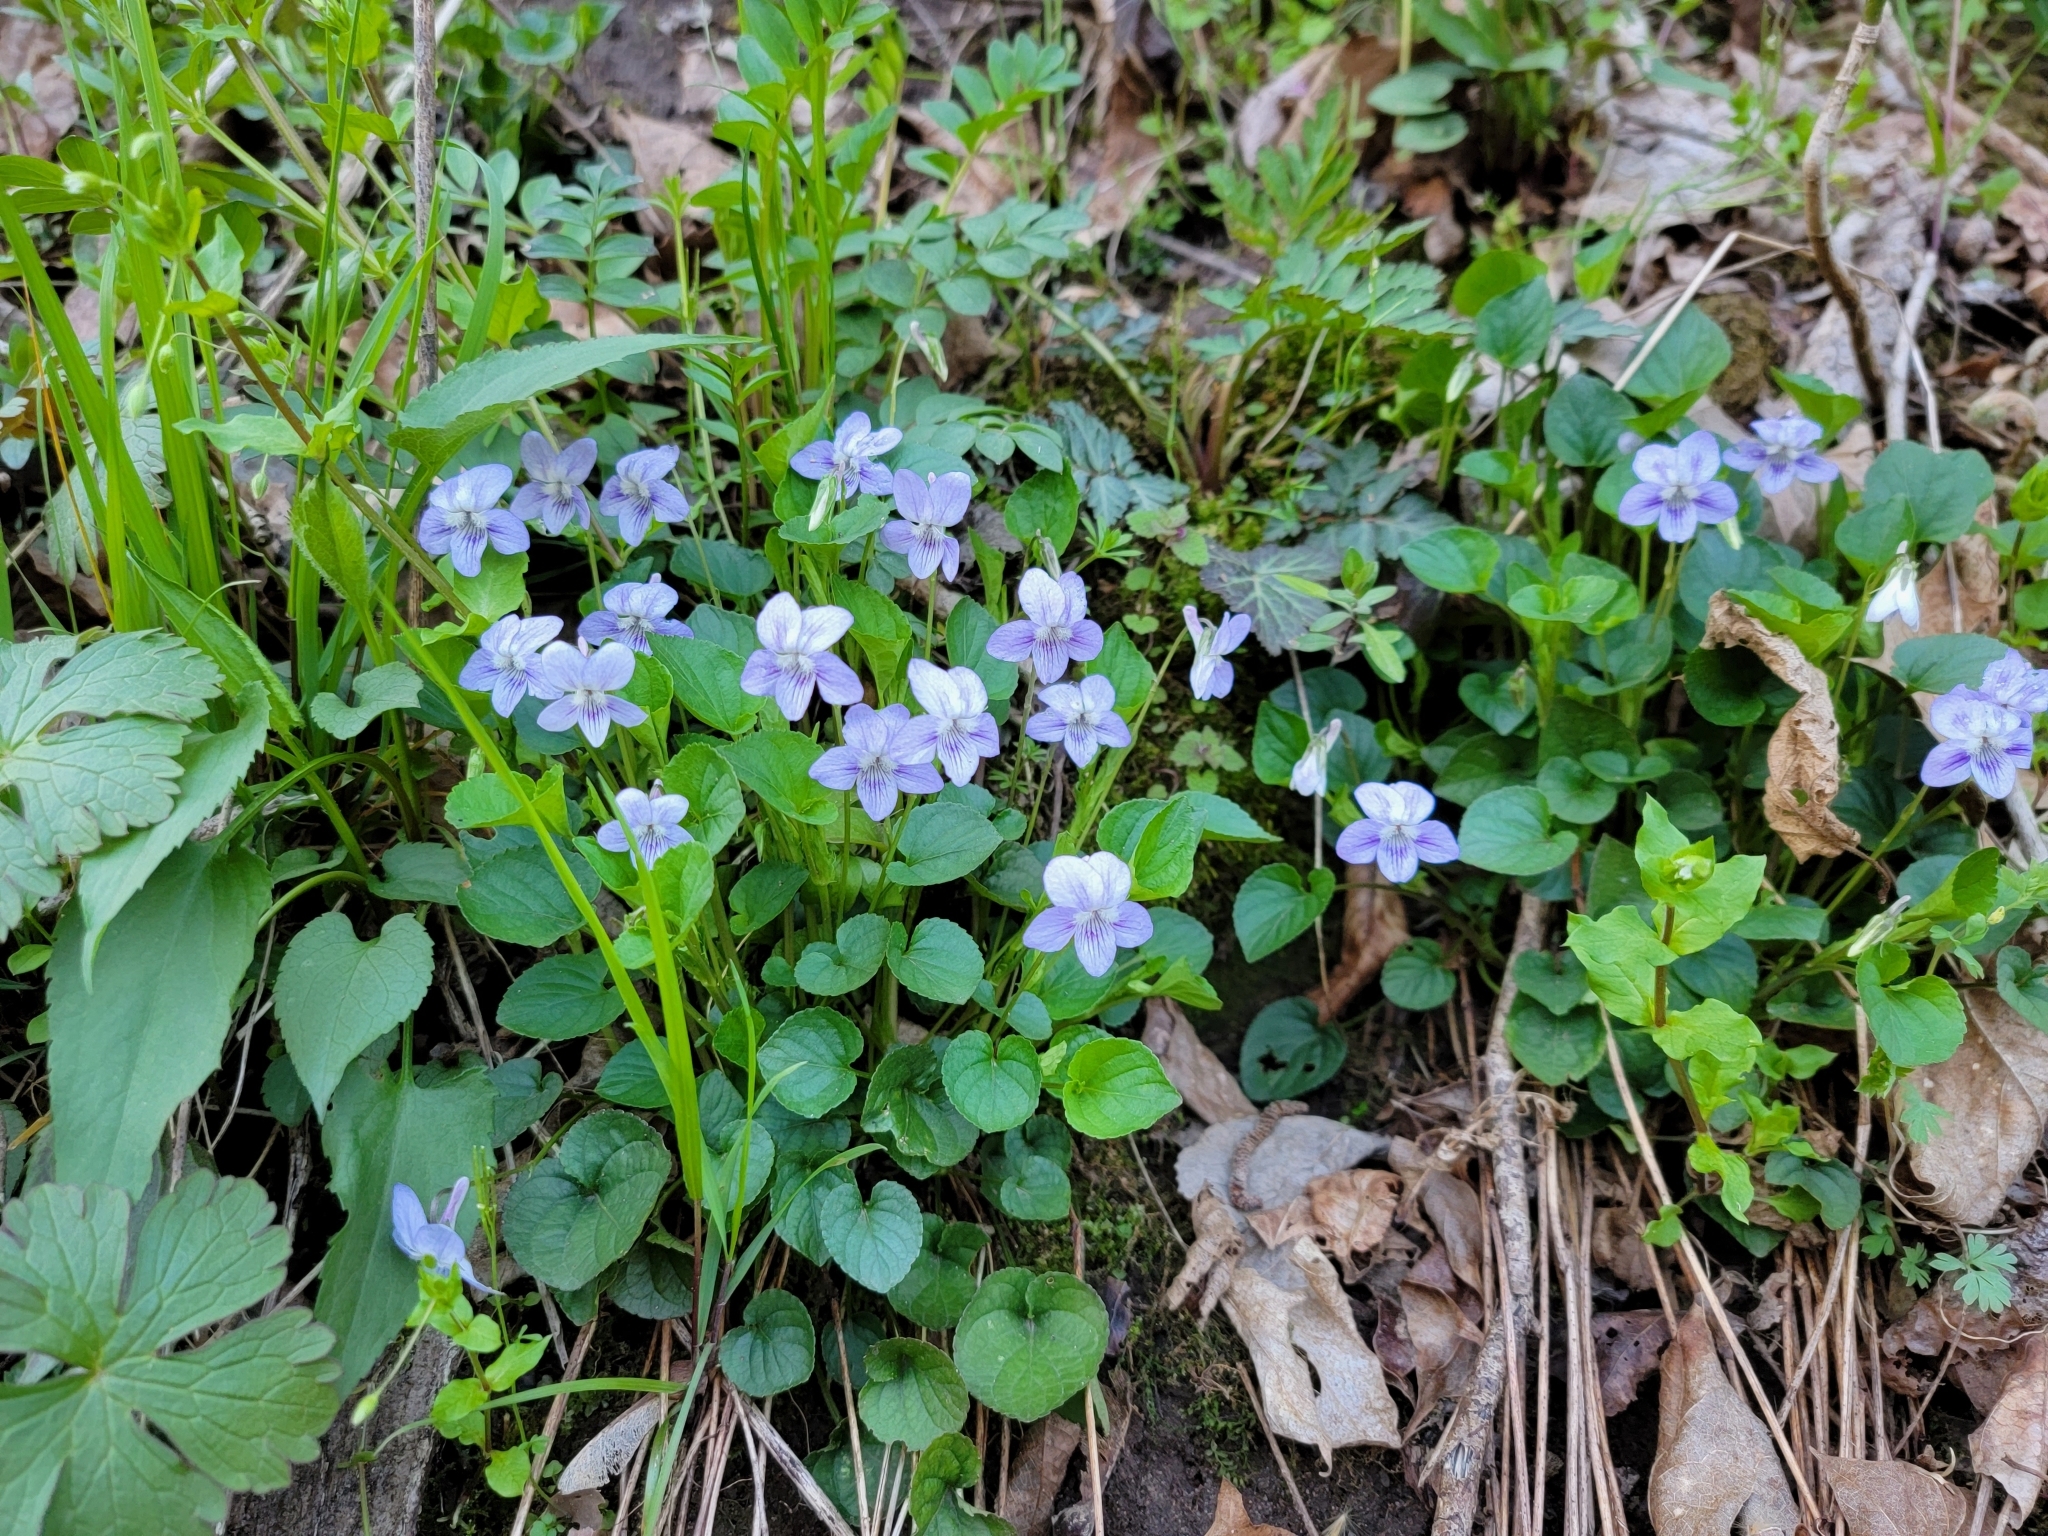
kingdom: Plantae
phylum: Tracheophyta
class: Magnoliopsida
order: Malpighiales
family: Violaceae
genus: Viola
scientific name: Viola brauniae
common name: Braun's violet
